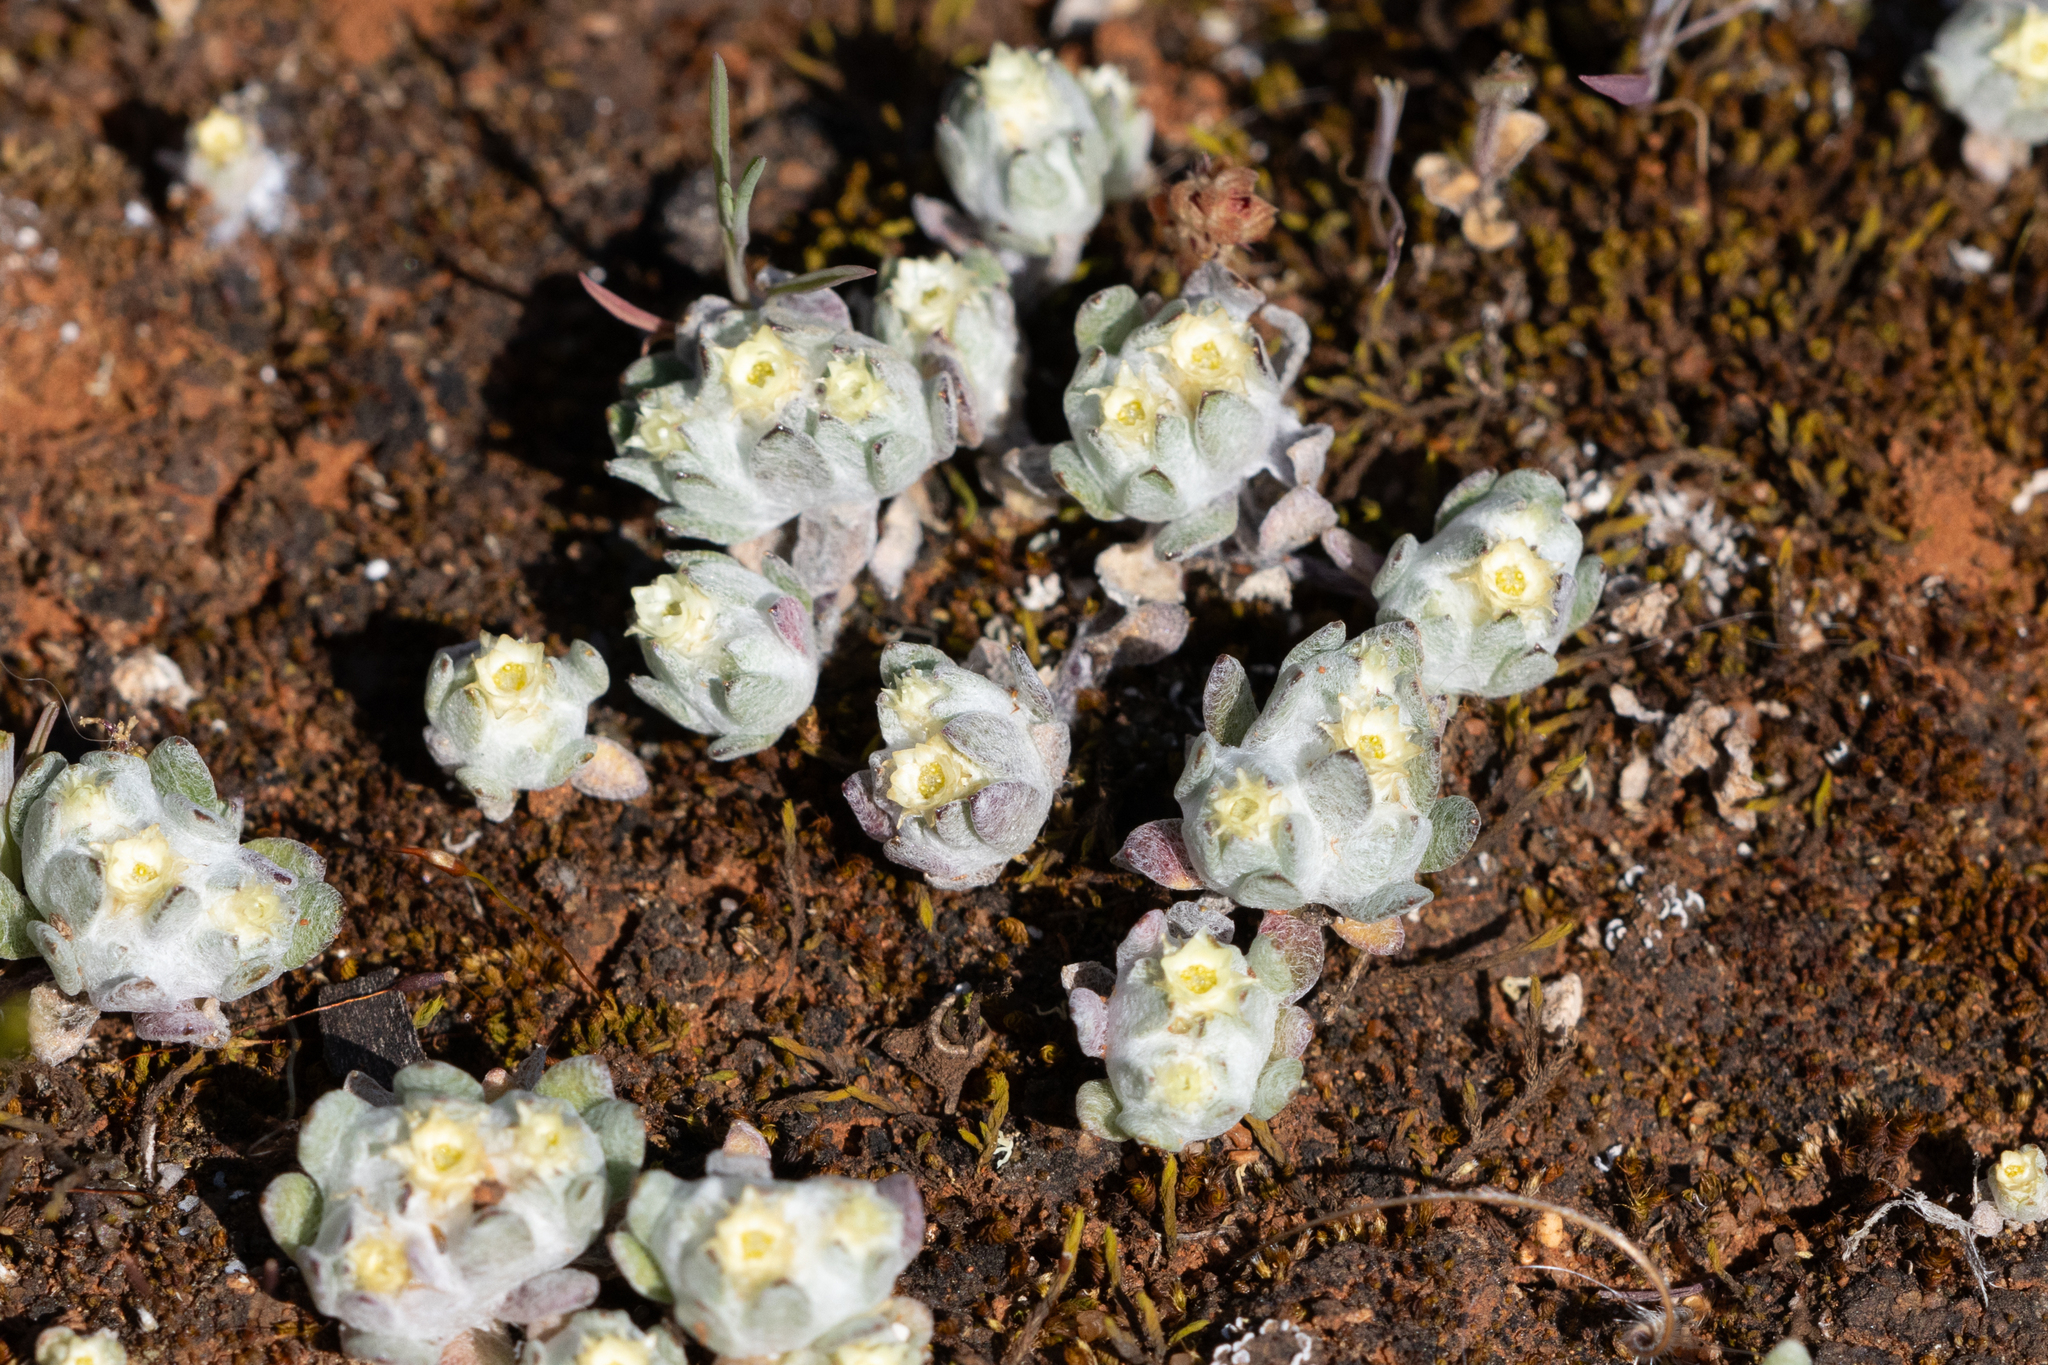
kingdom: Plantae
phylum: Tracheophyta
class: Magnoliopsida
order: Asterales
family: Asteraceae
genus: Actinobole
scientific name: Actinobole uliginosum
